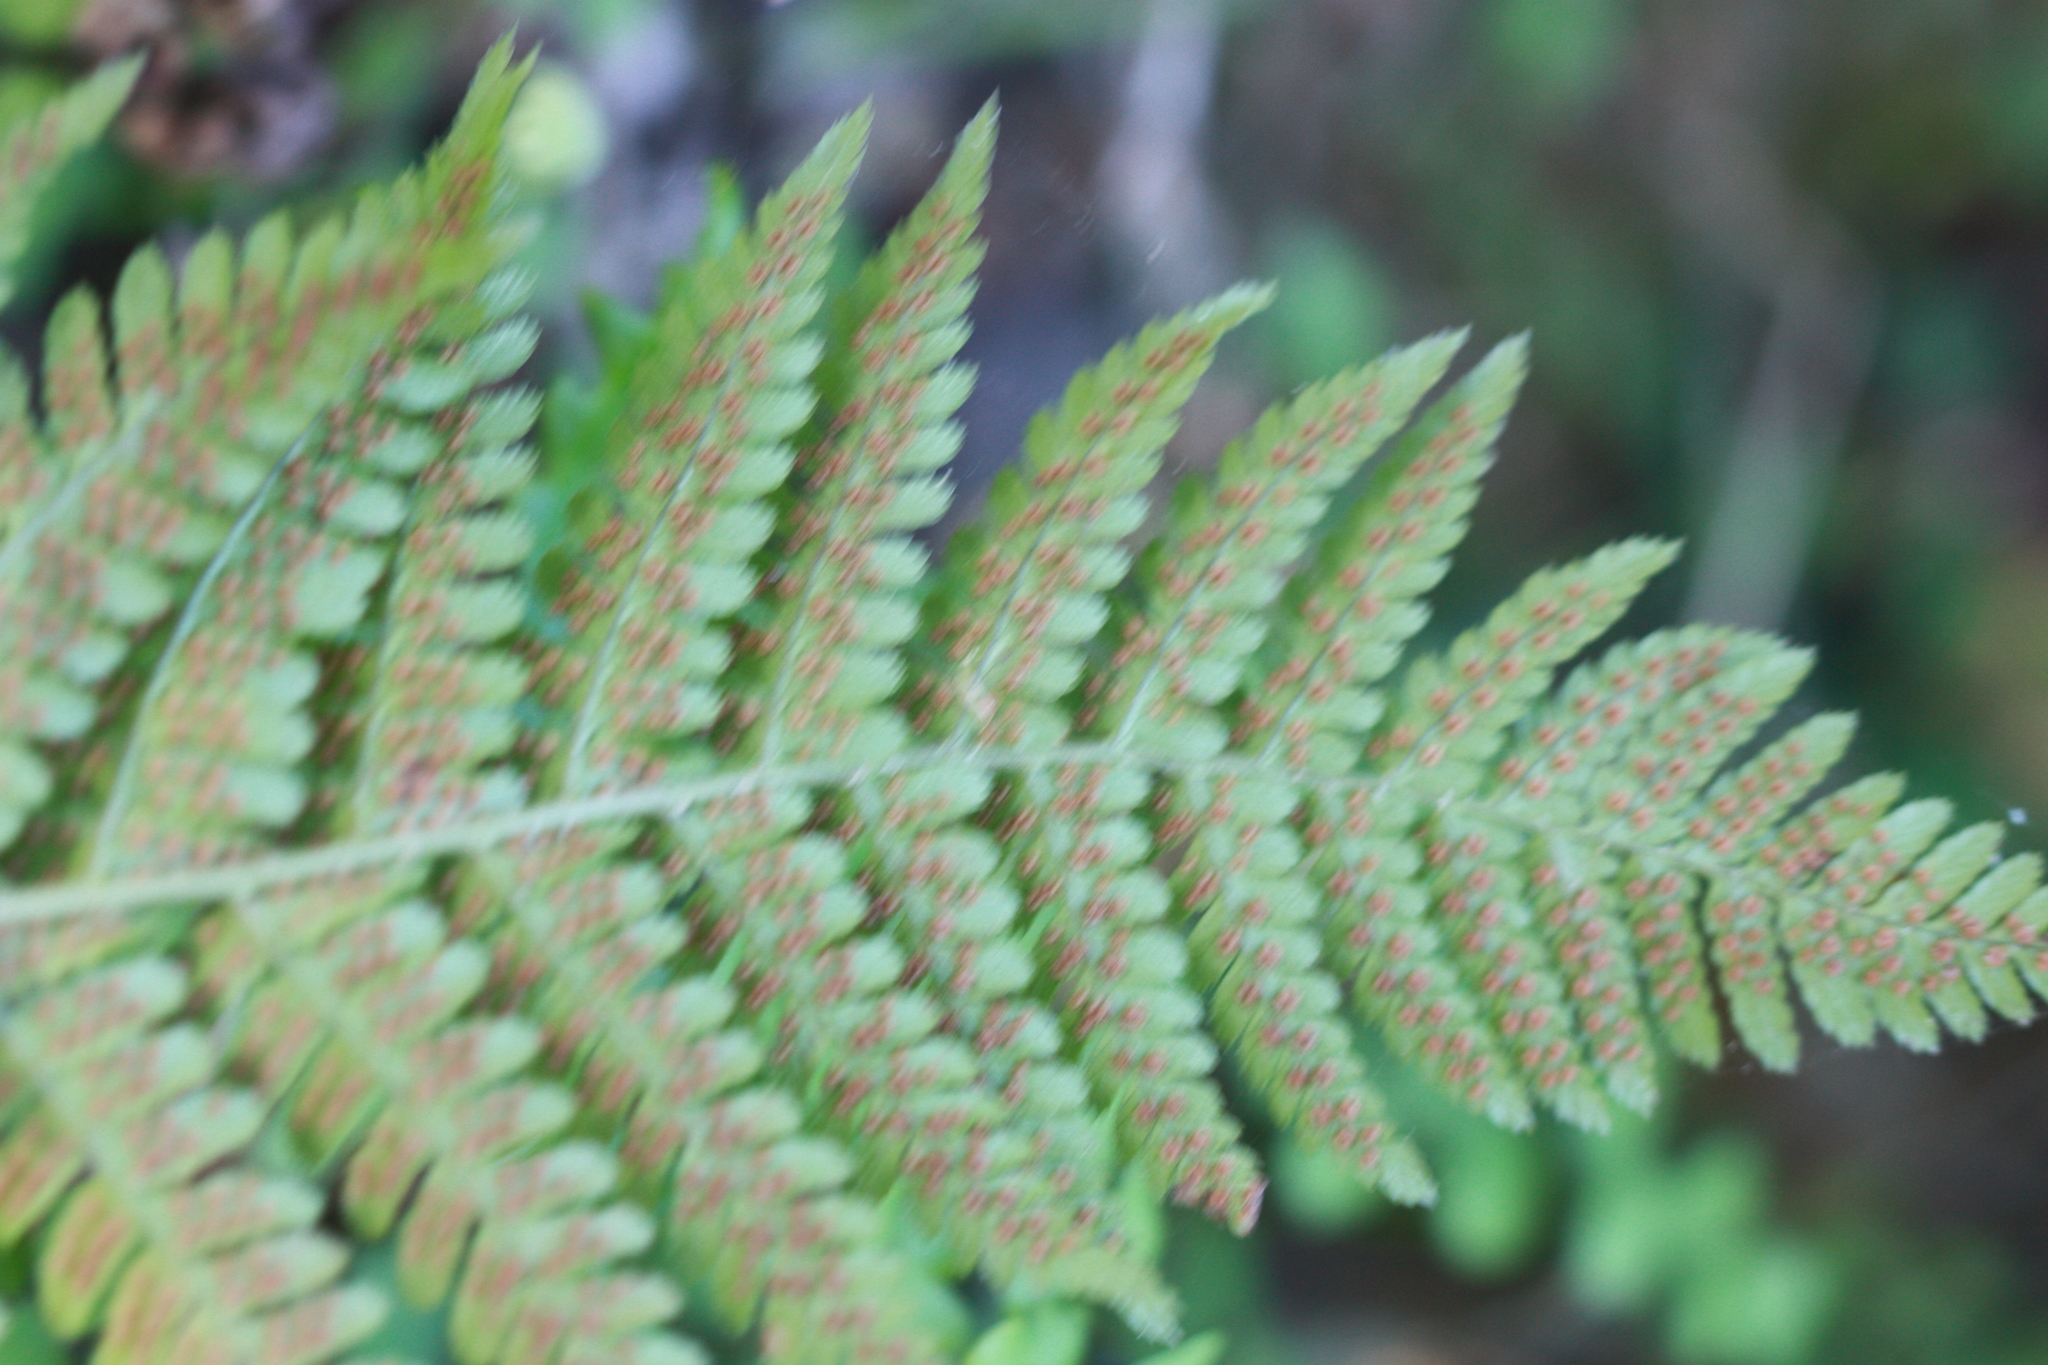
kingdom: Plantae
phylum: Tracheophyta
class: Polypodiopsida
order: Polypodiales
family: Dryopteridaceae
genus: Dryopteris
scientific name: Dryopteris arguta
